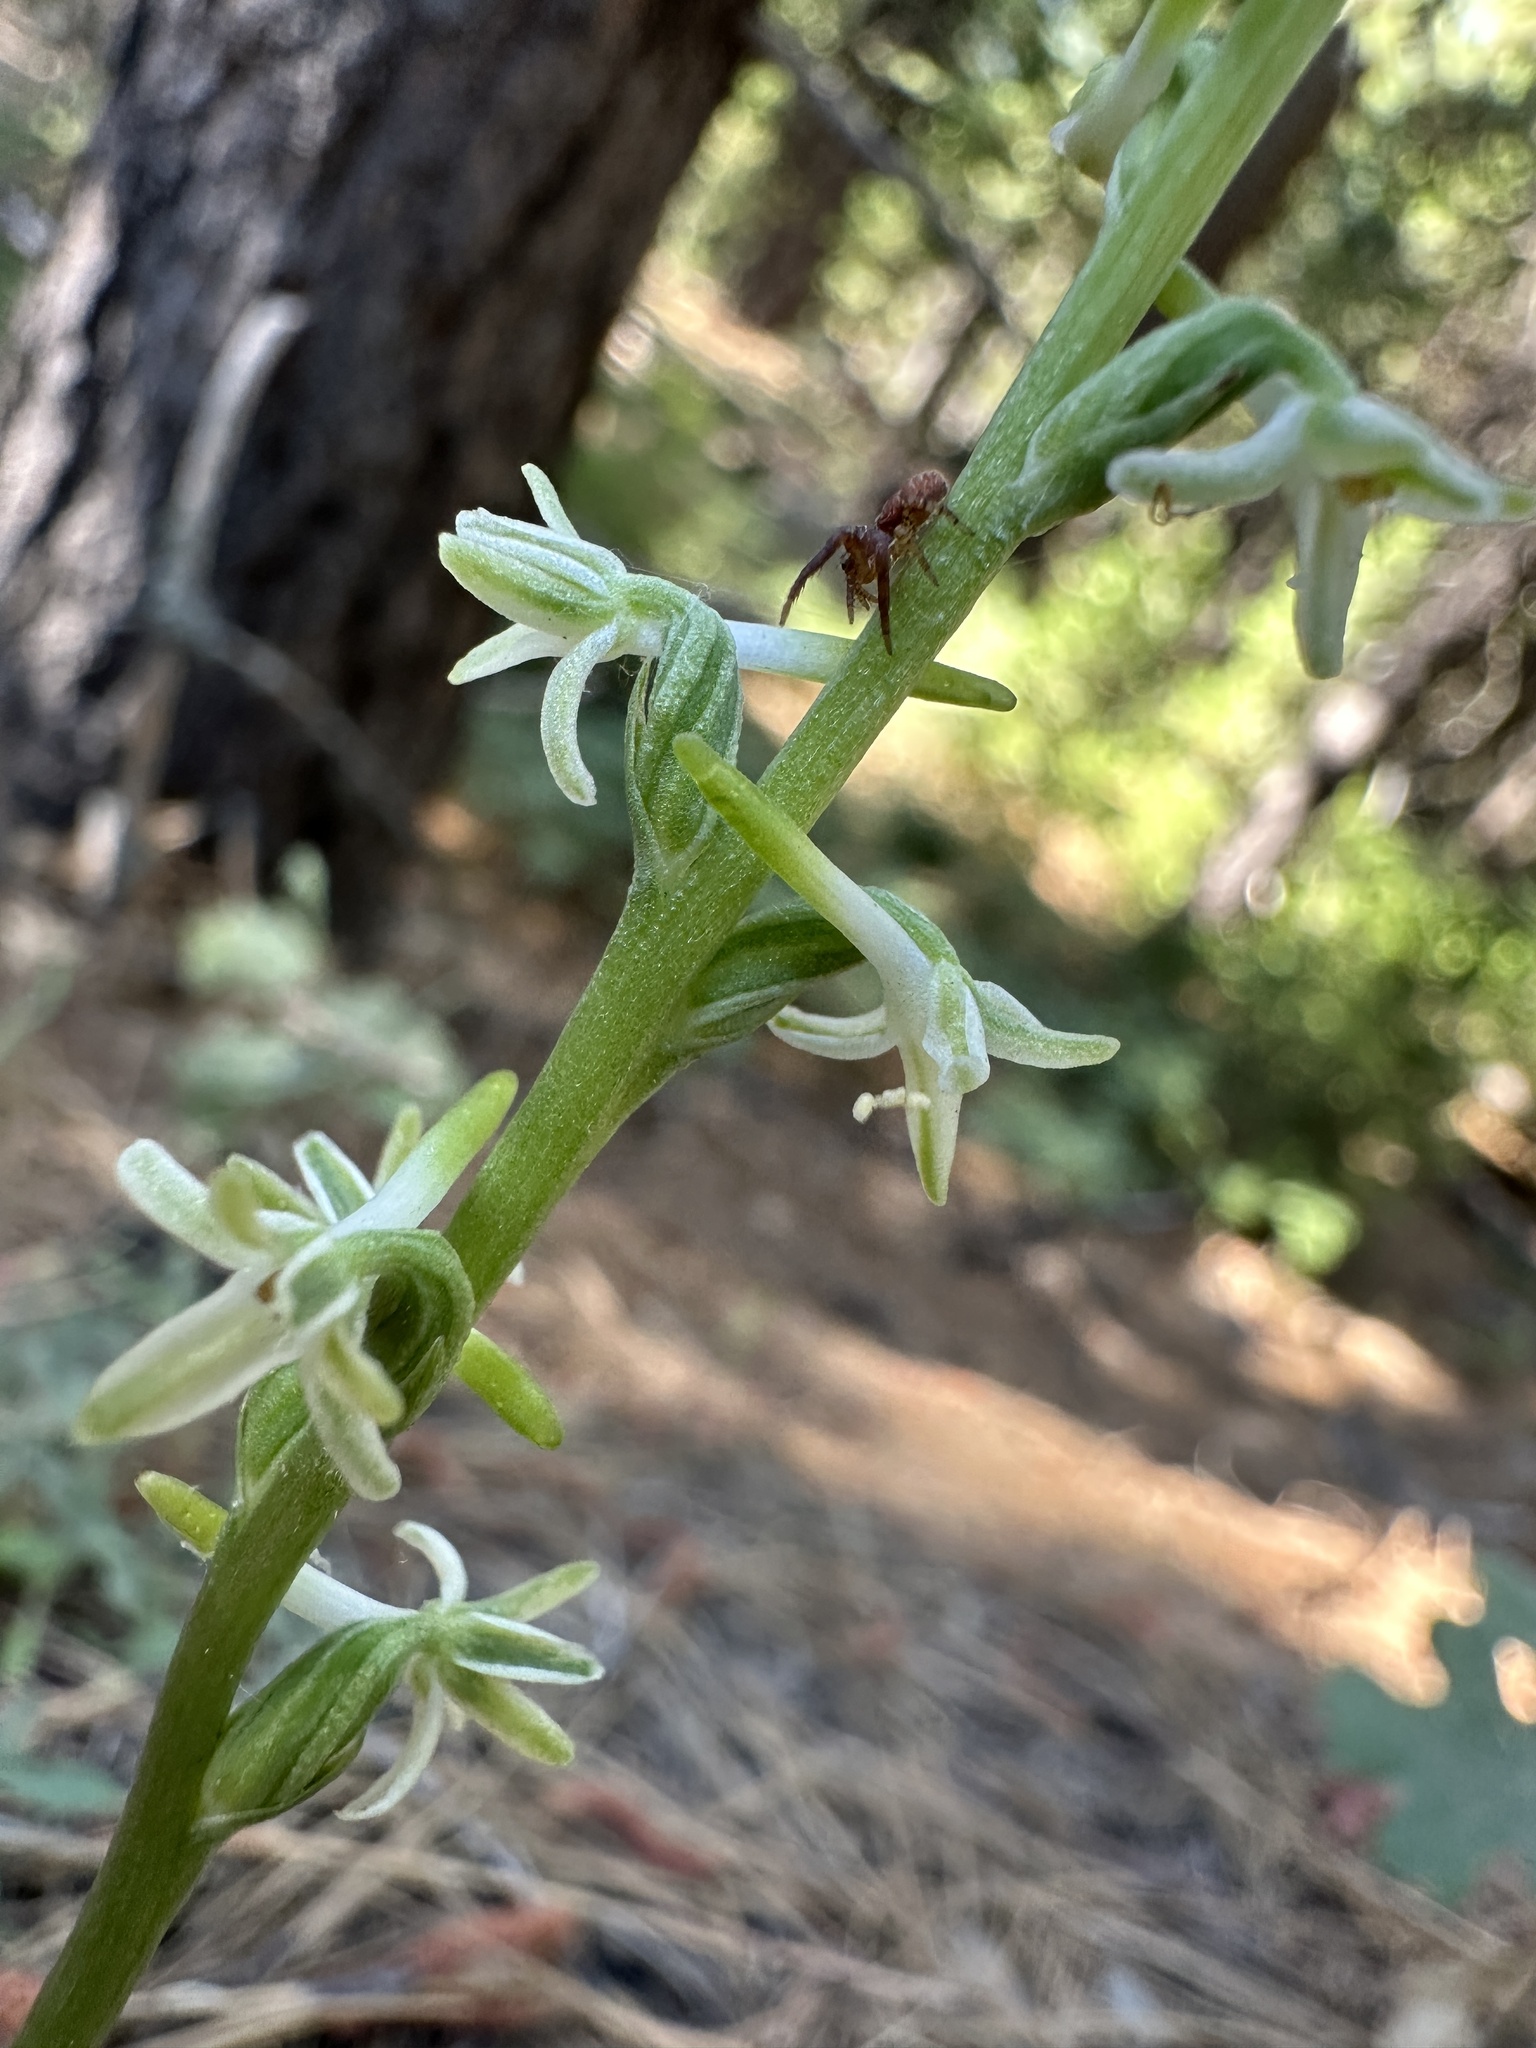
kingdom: Plantae
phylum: Tracheophyta
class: Liliopsida
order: Asparagales
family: Orchidaceae
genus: Platanthera
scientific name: Platanthera transversa
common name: Royal rein orchid
